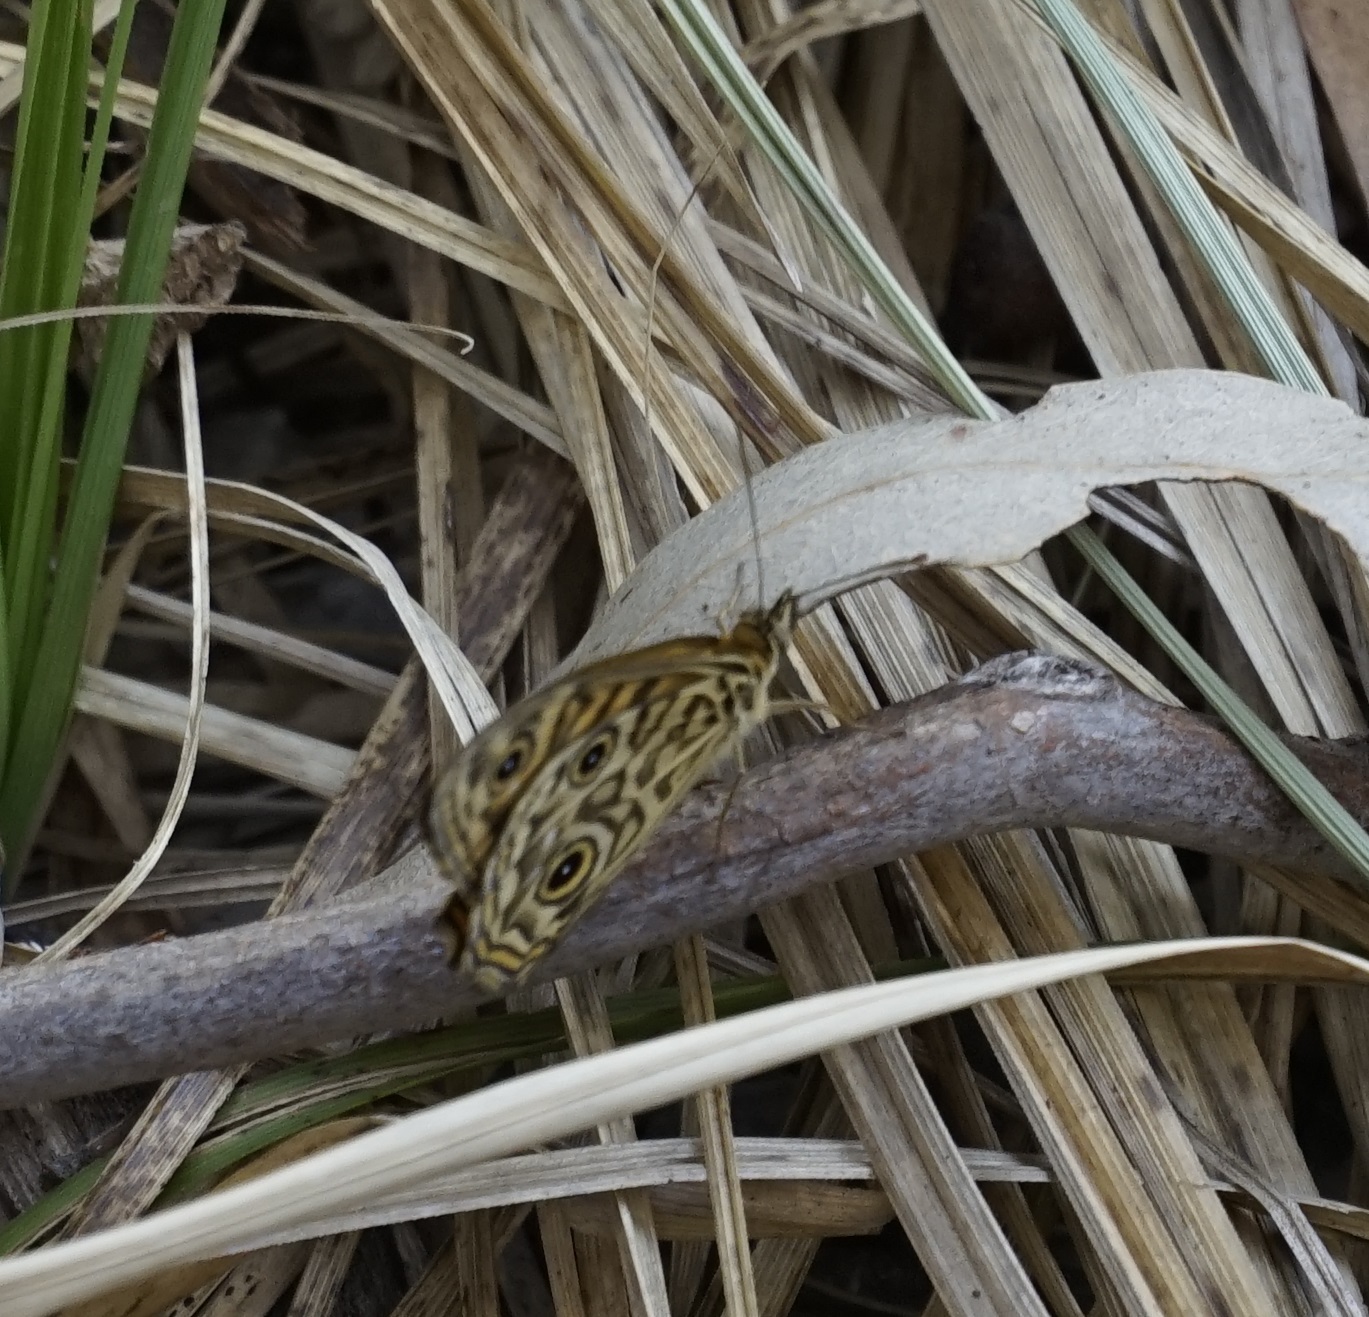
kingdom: Animalia
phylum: Arthropoda
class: Insecta
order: Lepidoptera
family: Nymphalidae
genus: Geitoneura
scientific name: Geitoneura acantha
